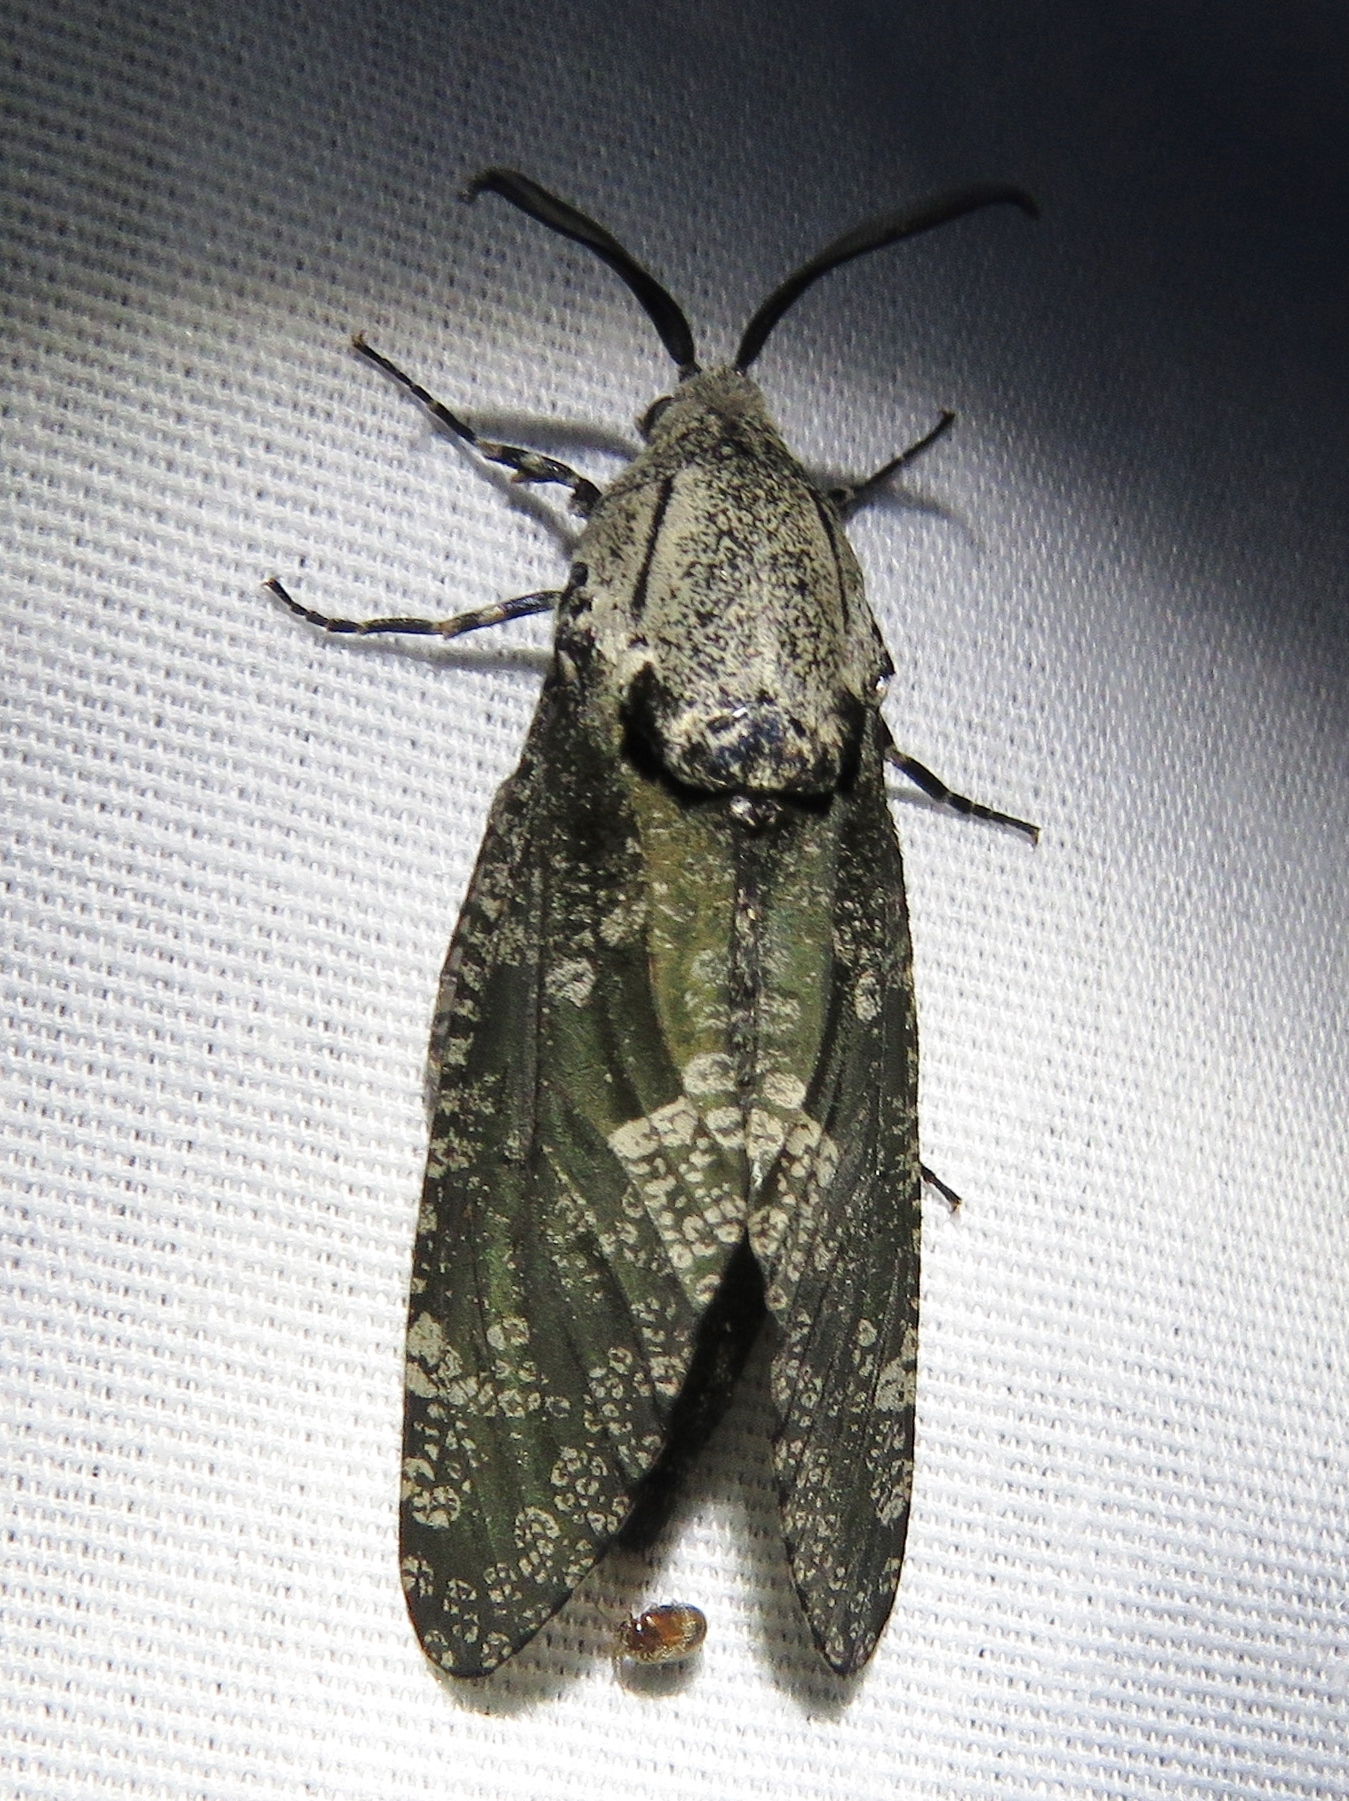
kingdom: Animalia
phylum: Arthropoda
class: Insecta
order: Lepidoptera
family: Cossidae
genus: Prionoxystus
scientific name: Prionoxystus robiniae
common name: Carpenterworm
